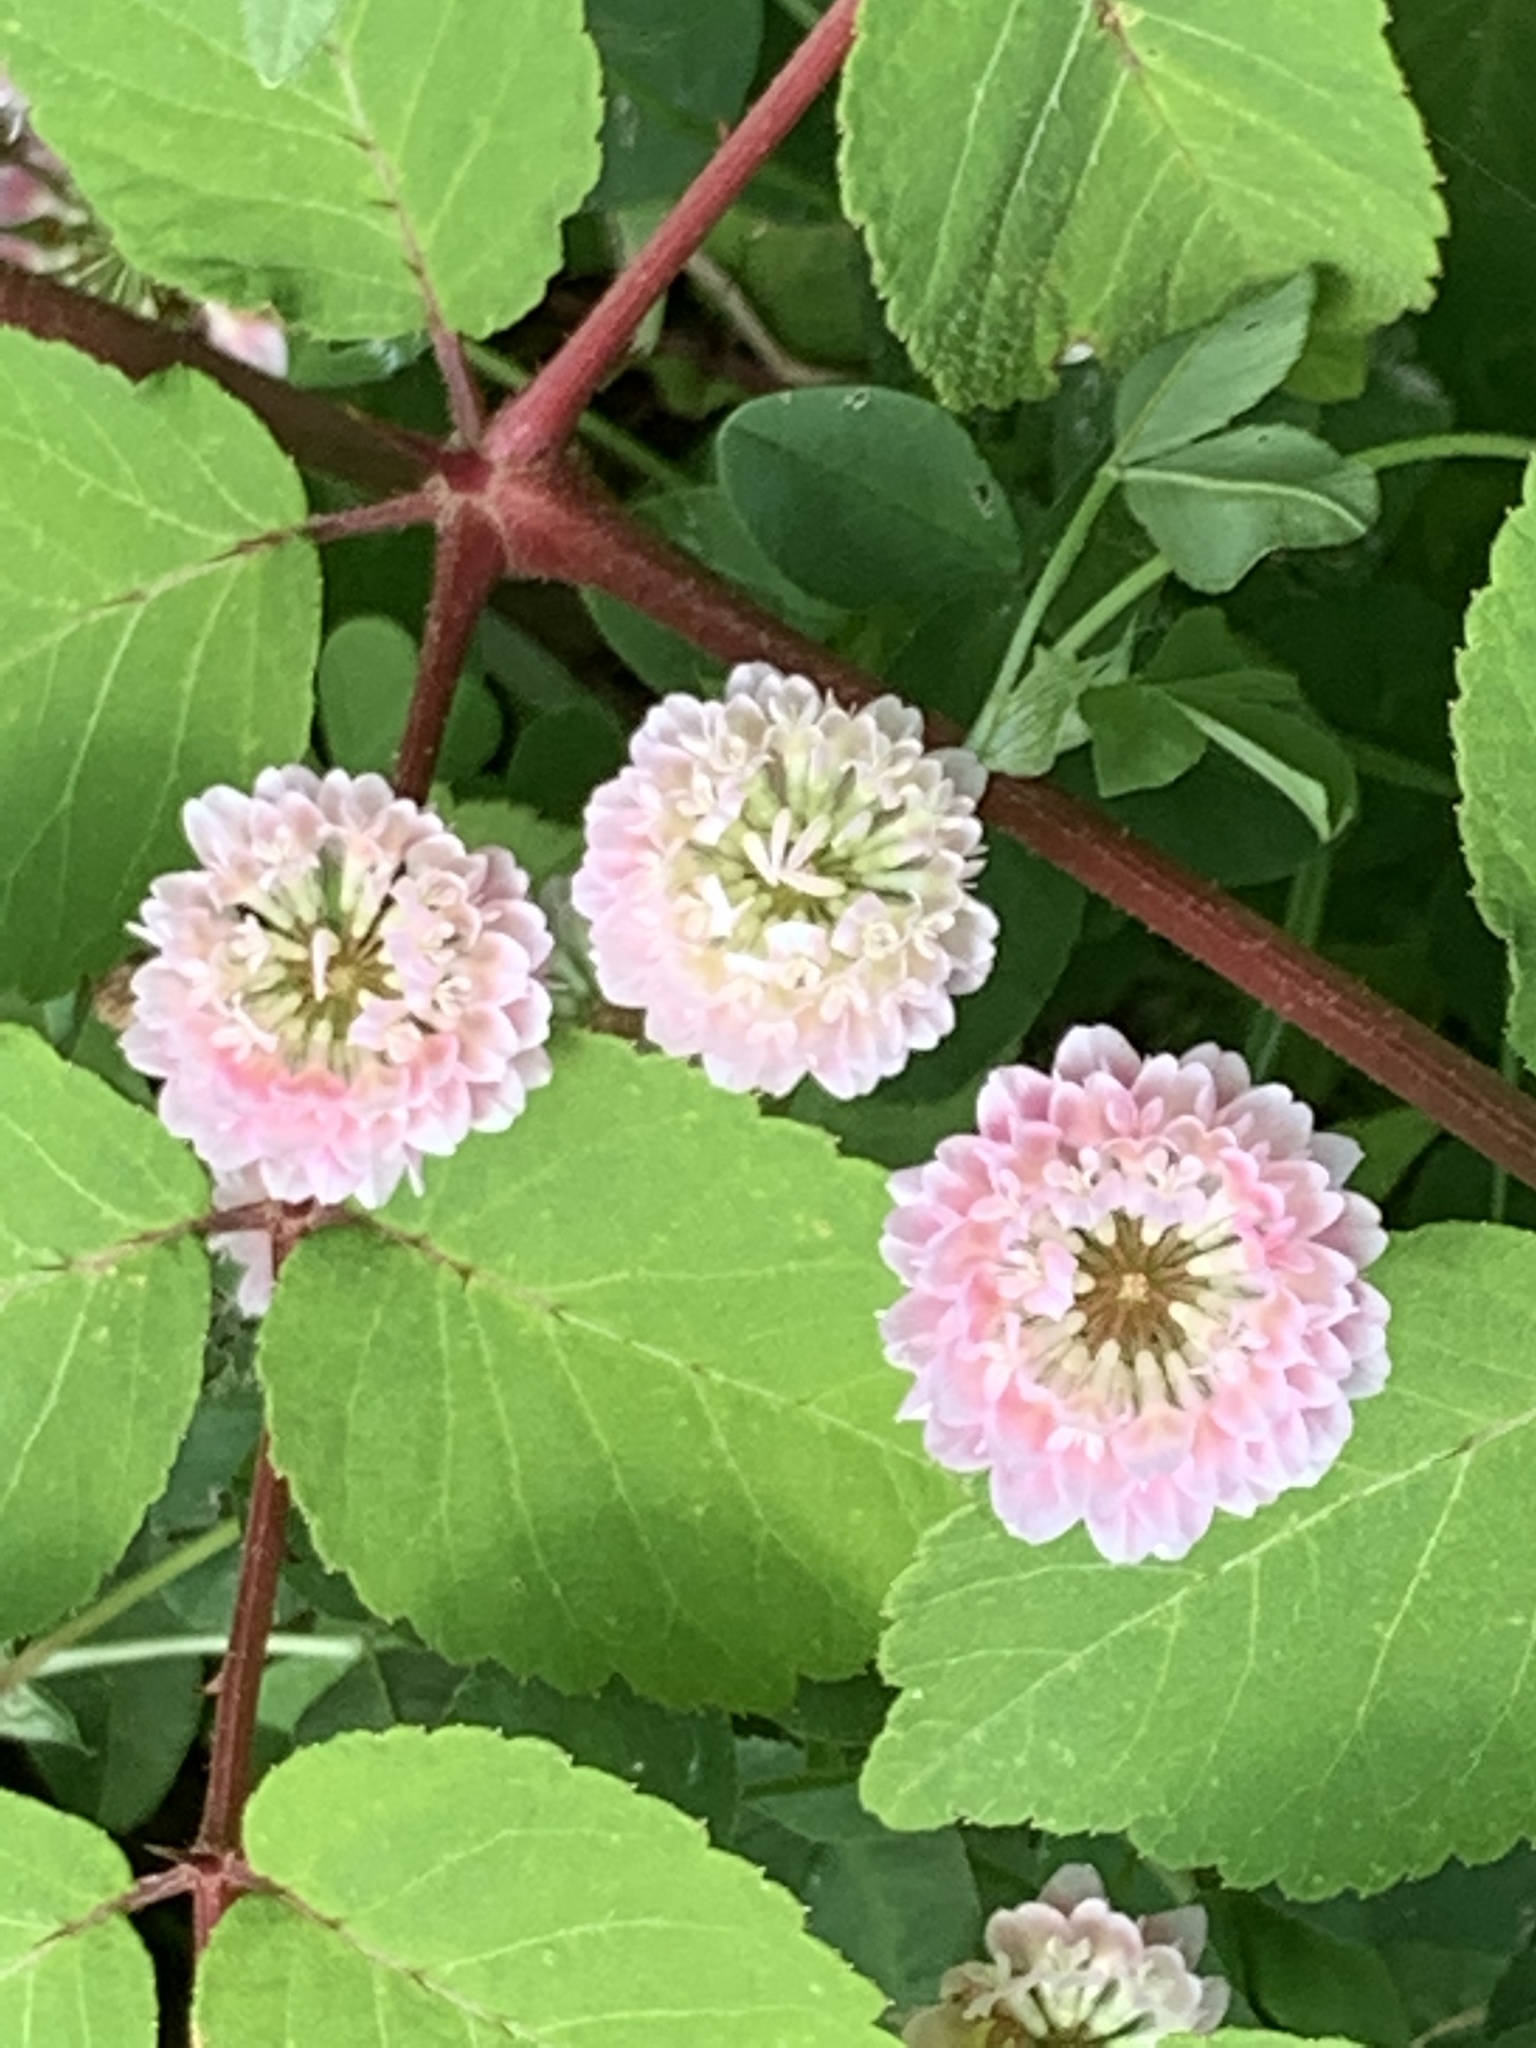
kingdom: Plantae
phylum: Tracheophyta
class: Magnoliopsida
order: Fabales
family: Fabaceae
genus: Trifolium
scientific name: Trifolium hybridum
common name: Alsike clover
